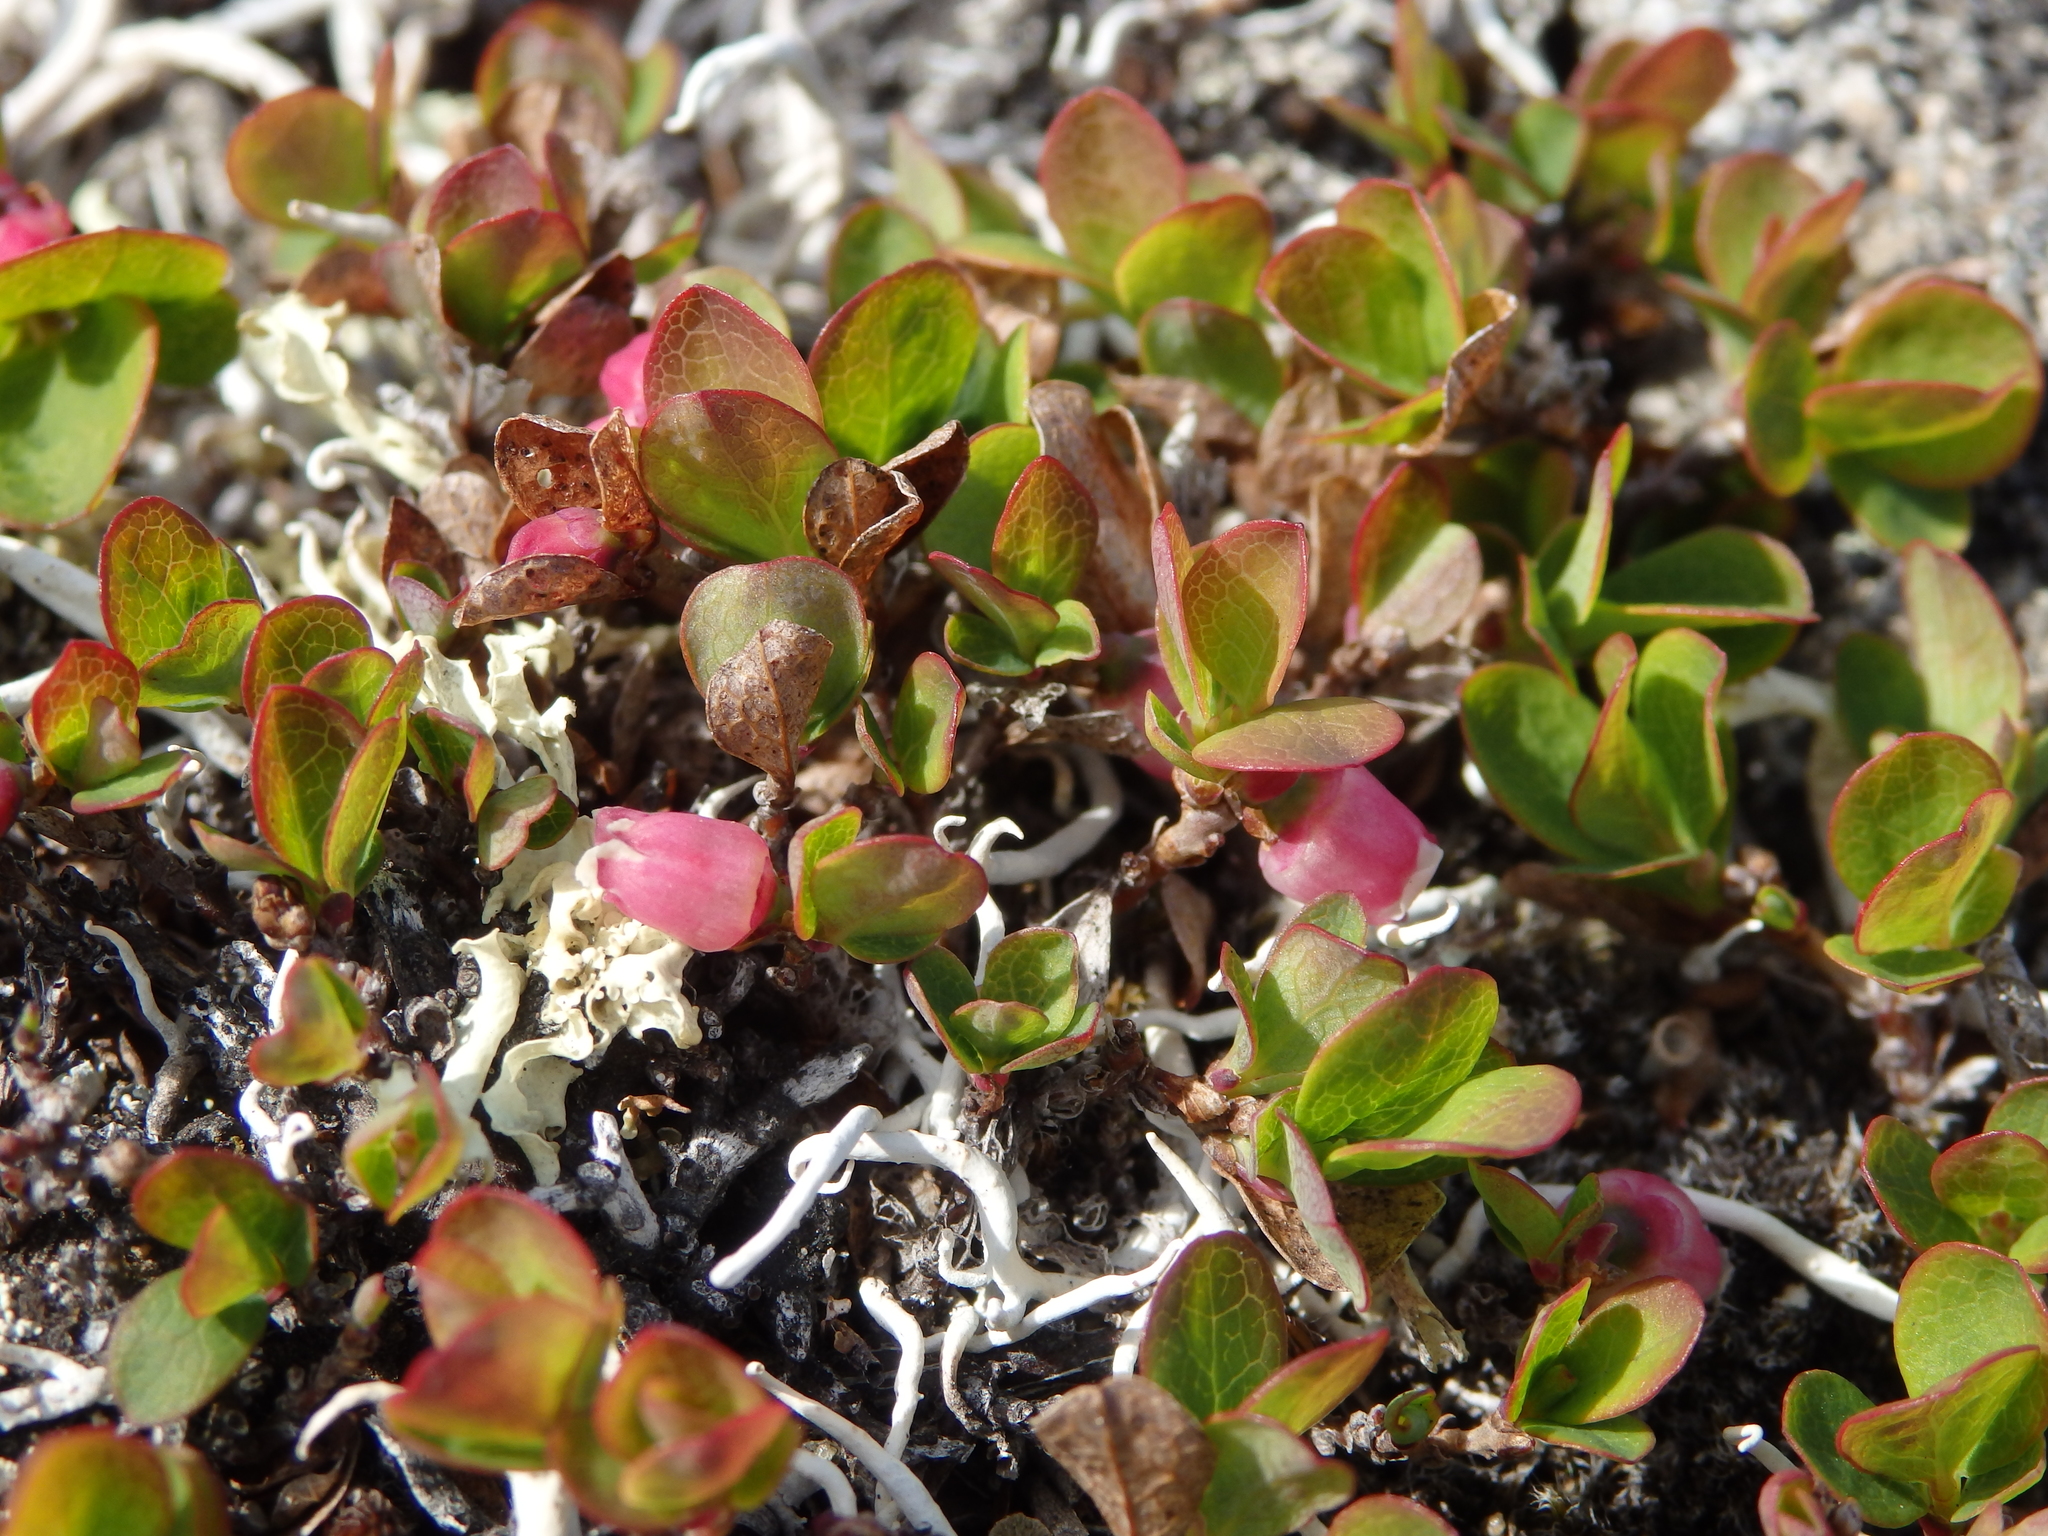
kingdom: Plantae
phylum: Tracheophyta
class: Magnoliopsida
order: Ericales
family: Ericaceae
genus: Vaccinium
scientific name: Vaccinium uliginosum
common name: Bog bilberry
